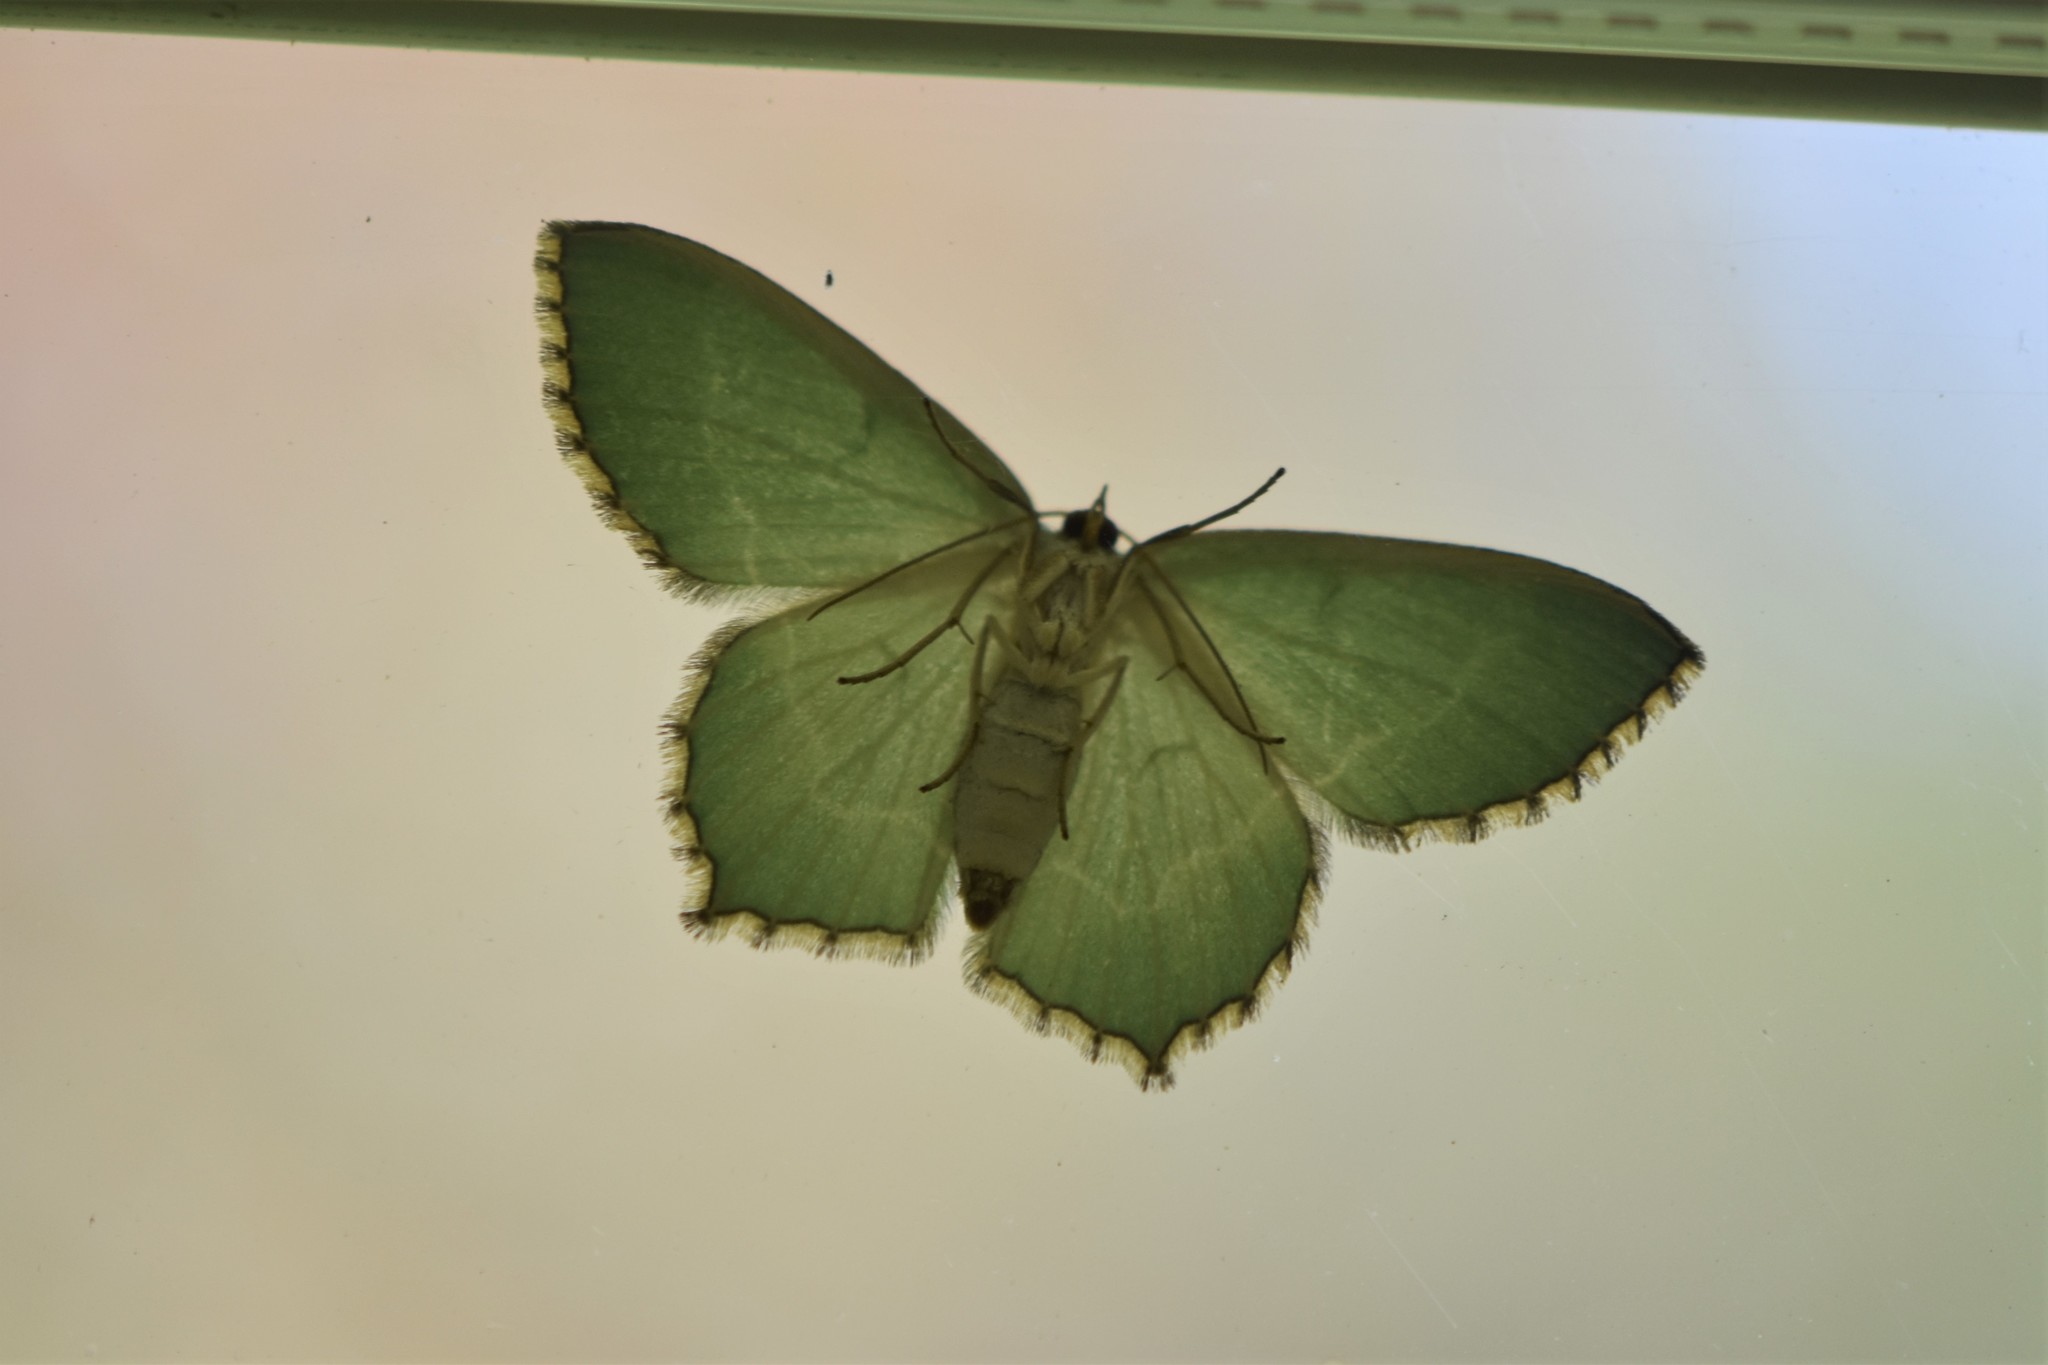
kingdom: Animalia
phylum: Arthropoda
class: Insecta
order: Lepidoptera
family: Geometridae
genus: Hemithea
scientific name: Hemithea aestivaria
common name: Common emerald
